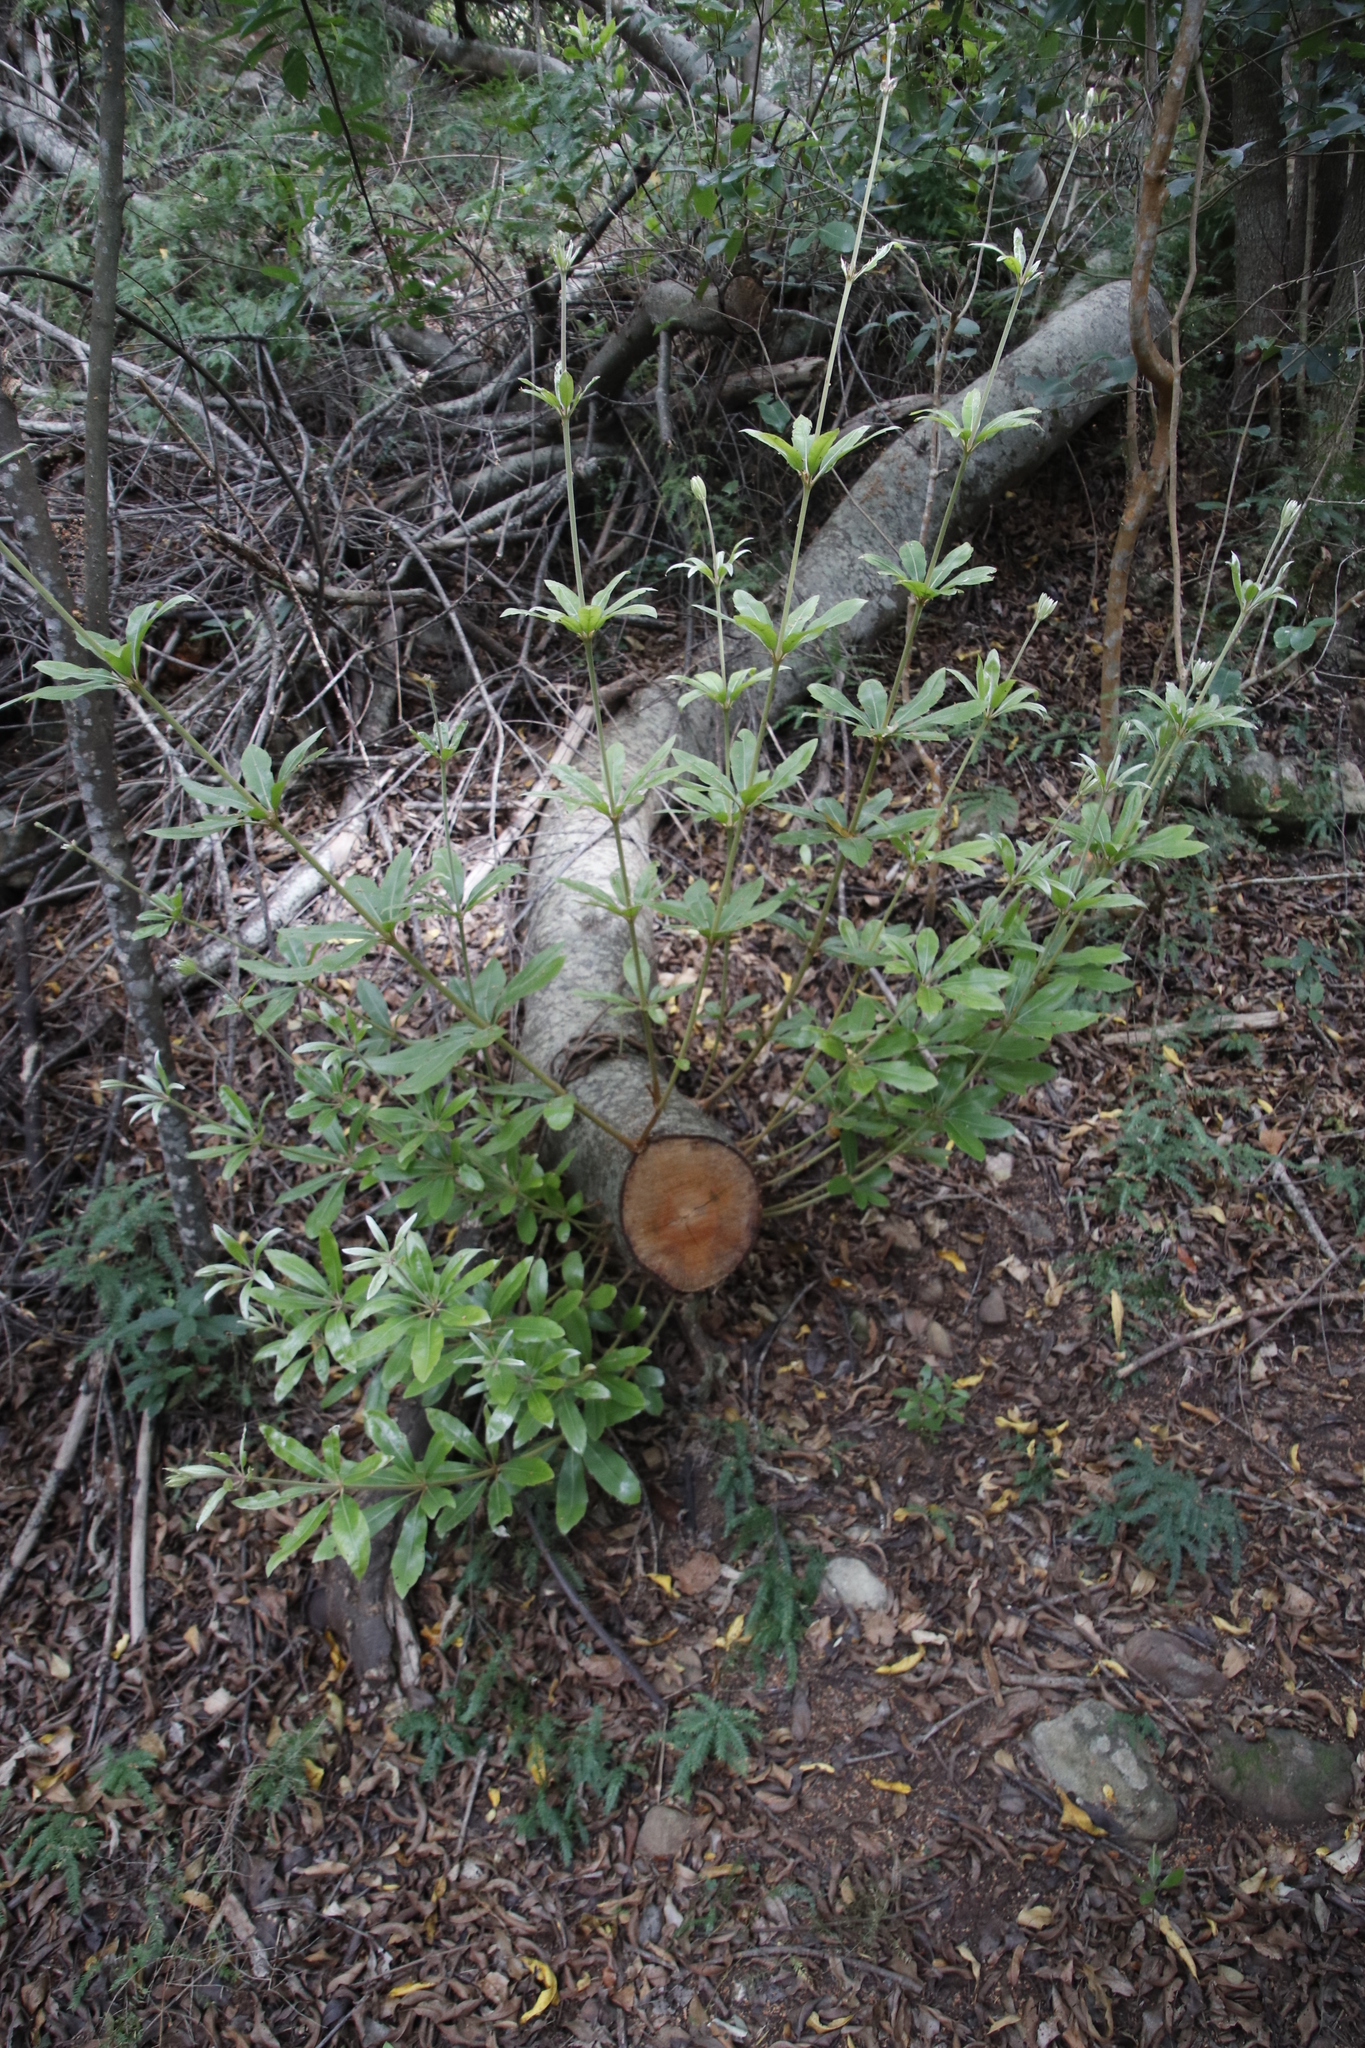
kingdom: Plantae
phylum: Tracheophyta
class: Magnoliopsida
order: Proteales
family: Proteaceae
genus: Brabejum
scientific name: Brabejum stellatifolium
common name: Wild almond
